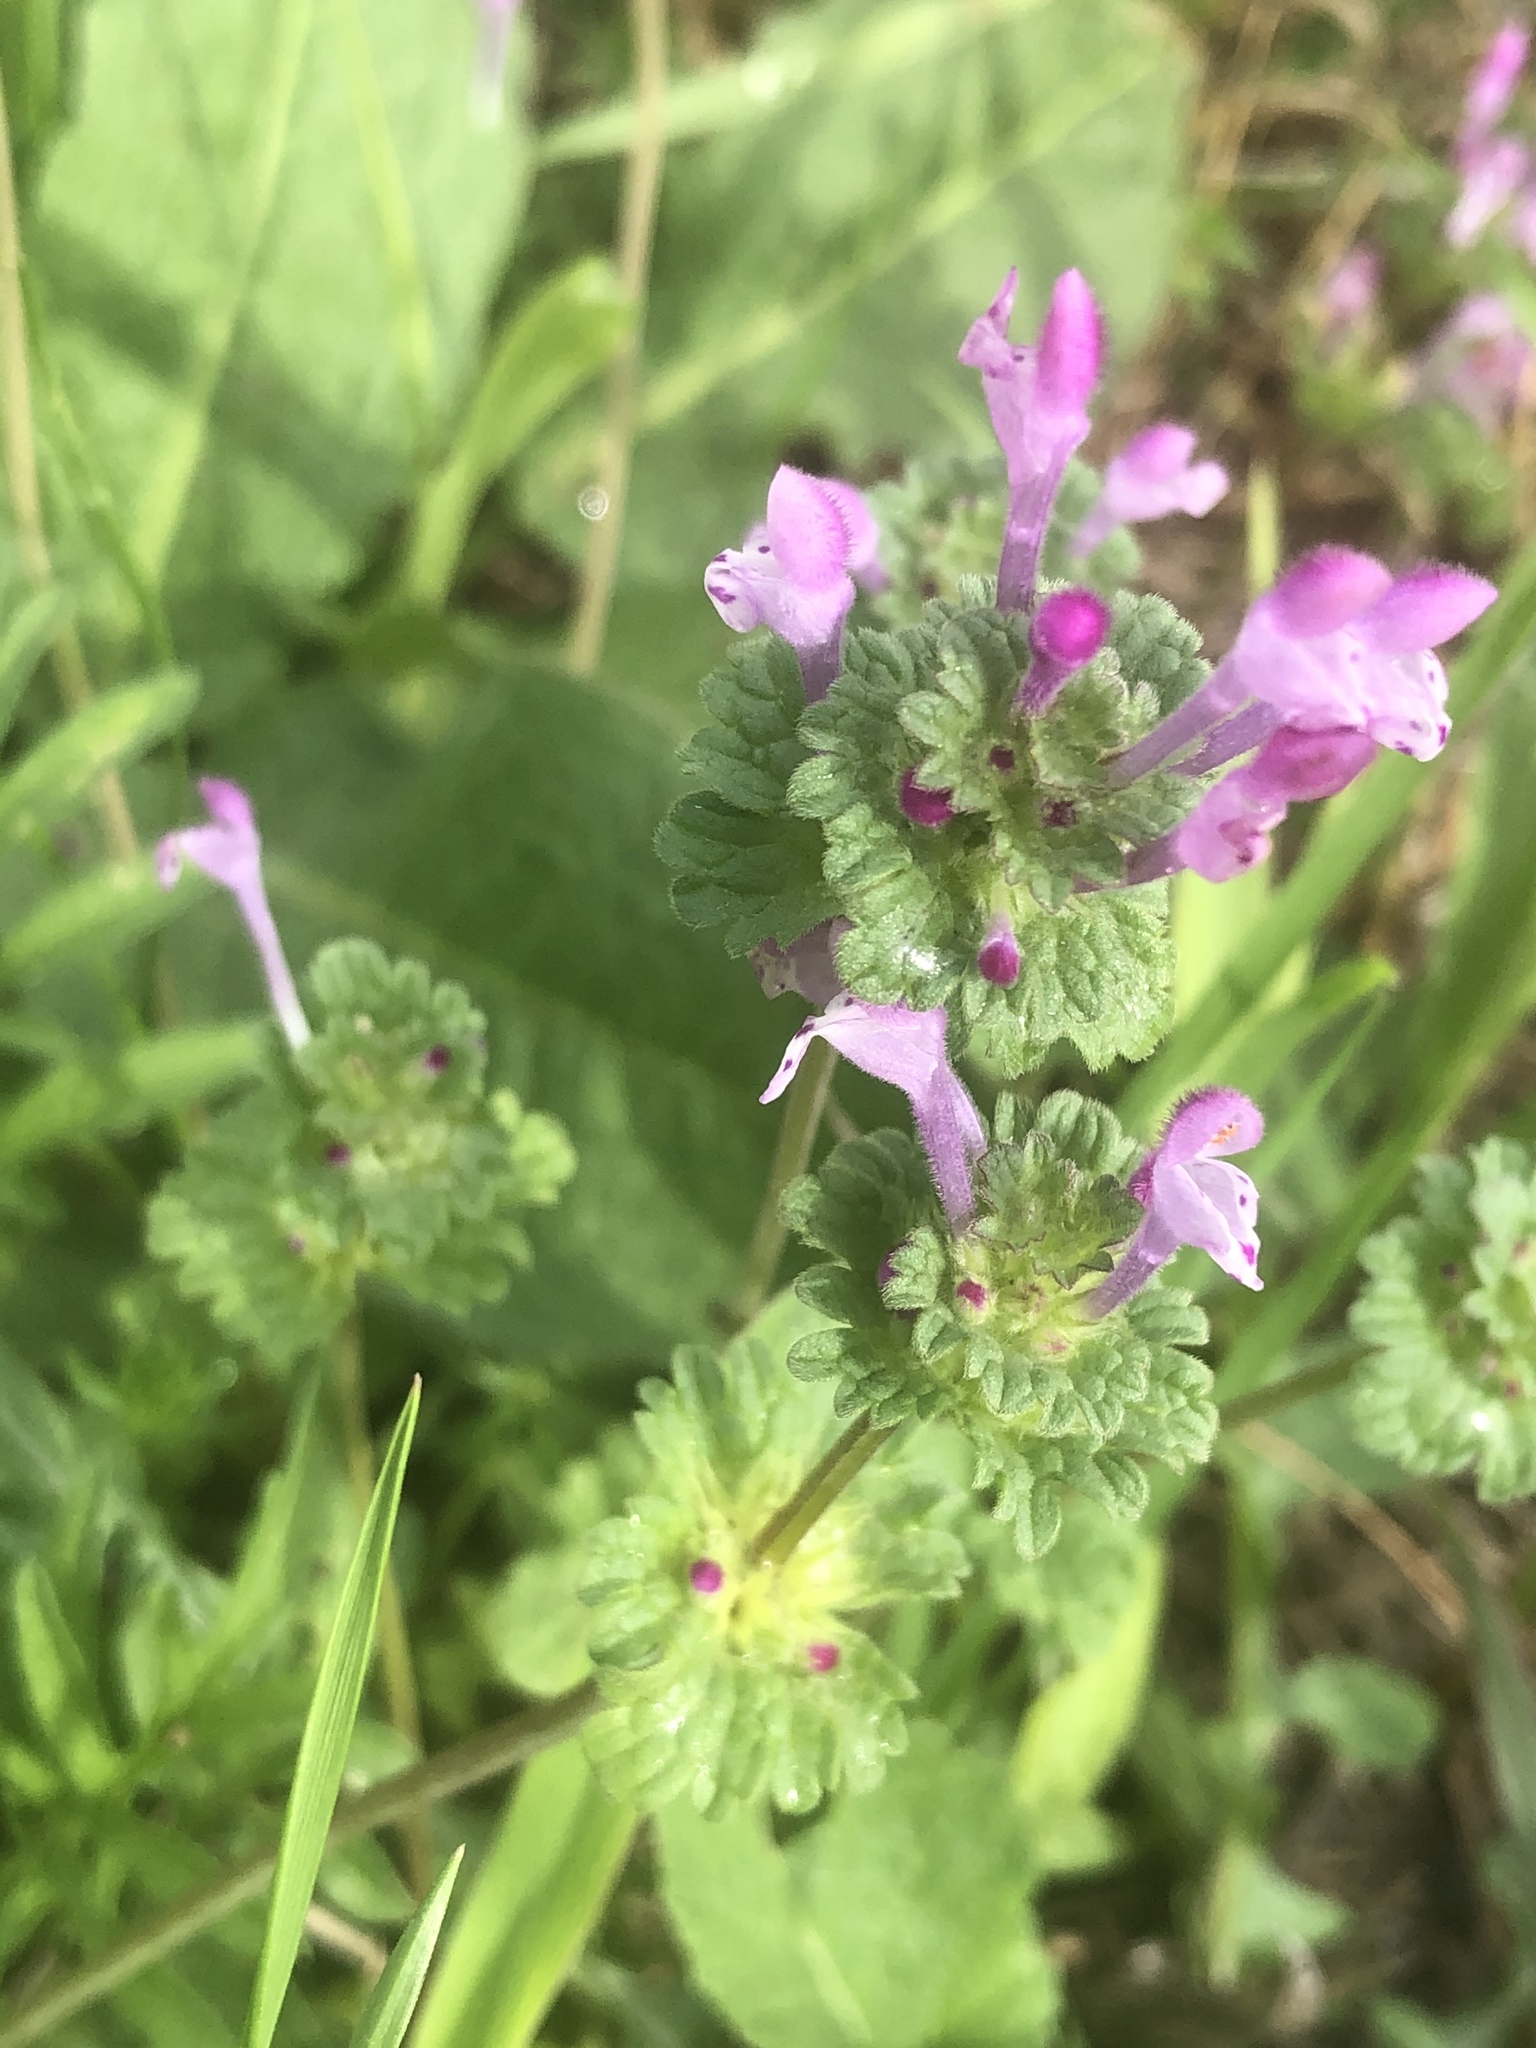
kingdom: Plantae
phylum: Tracheophyta
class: Magnoliopsida
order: Lamiales
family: Lamiaceae
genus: Lamium
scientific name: Lamium amplexicaule
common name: Henbit dead-nettle
